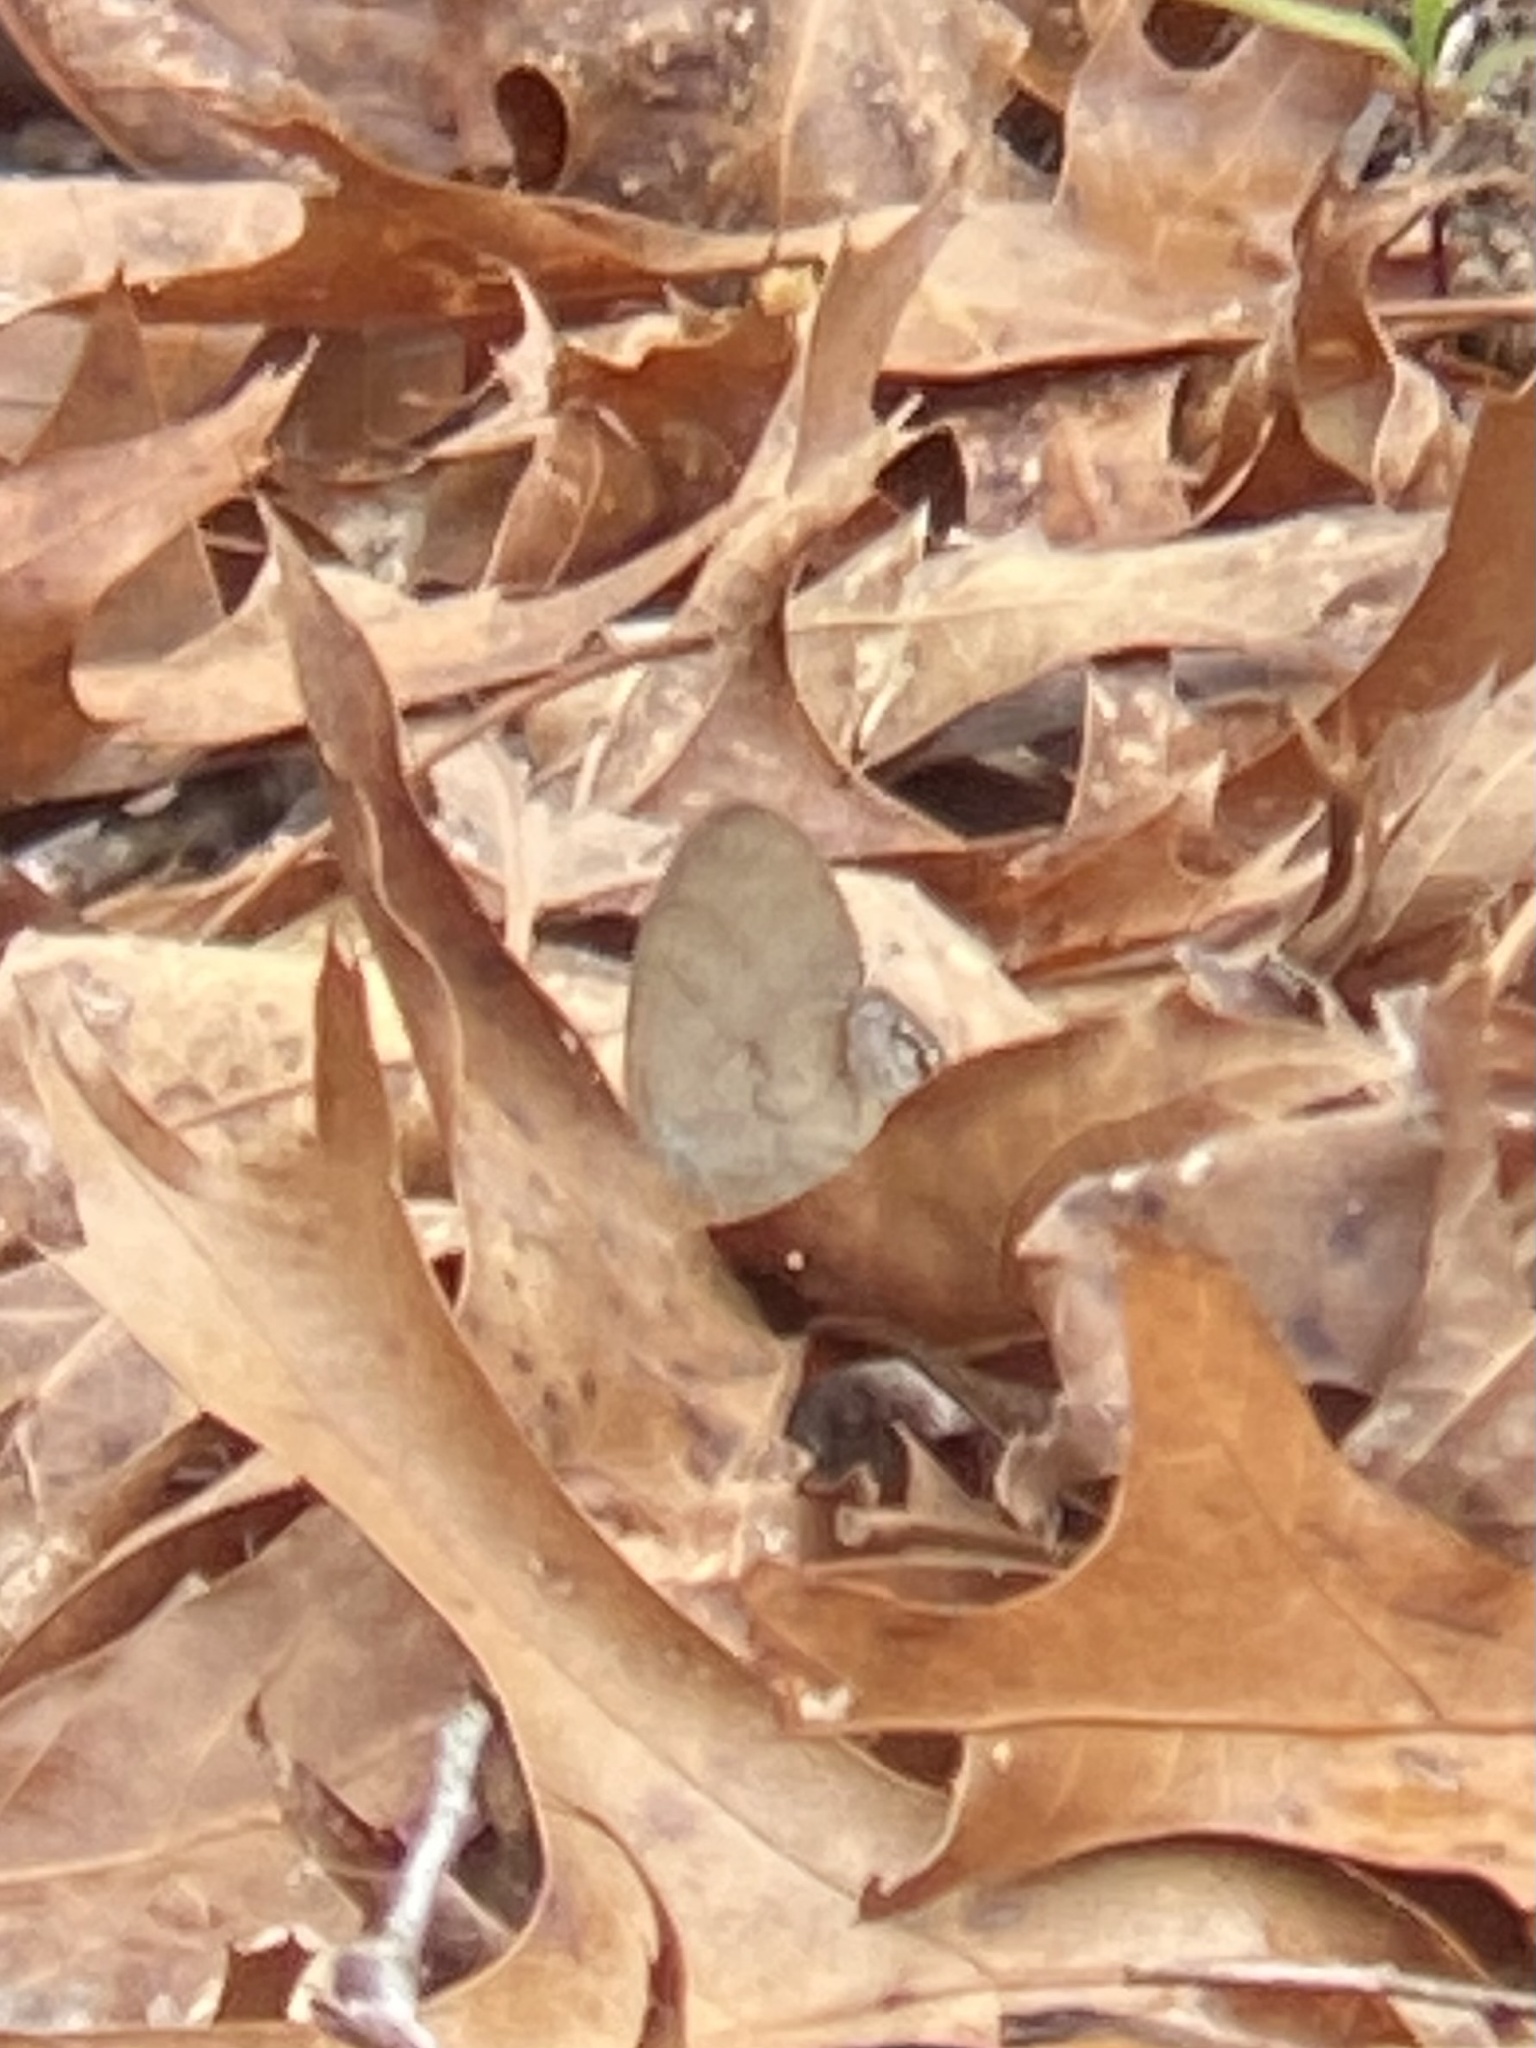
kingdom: Animalia
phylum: Arthropoda
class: Insecta
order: Lepidoptera
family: Nymphalidae
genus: Euptychia
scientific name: Euptychia cornelius
